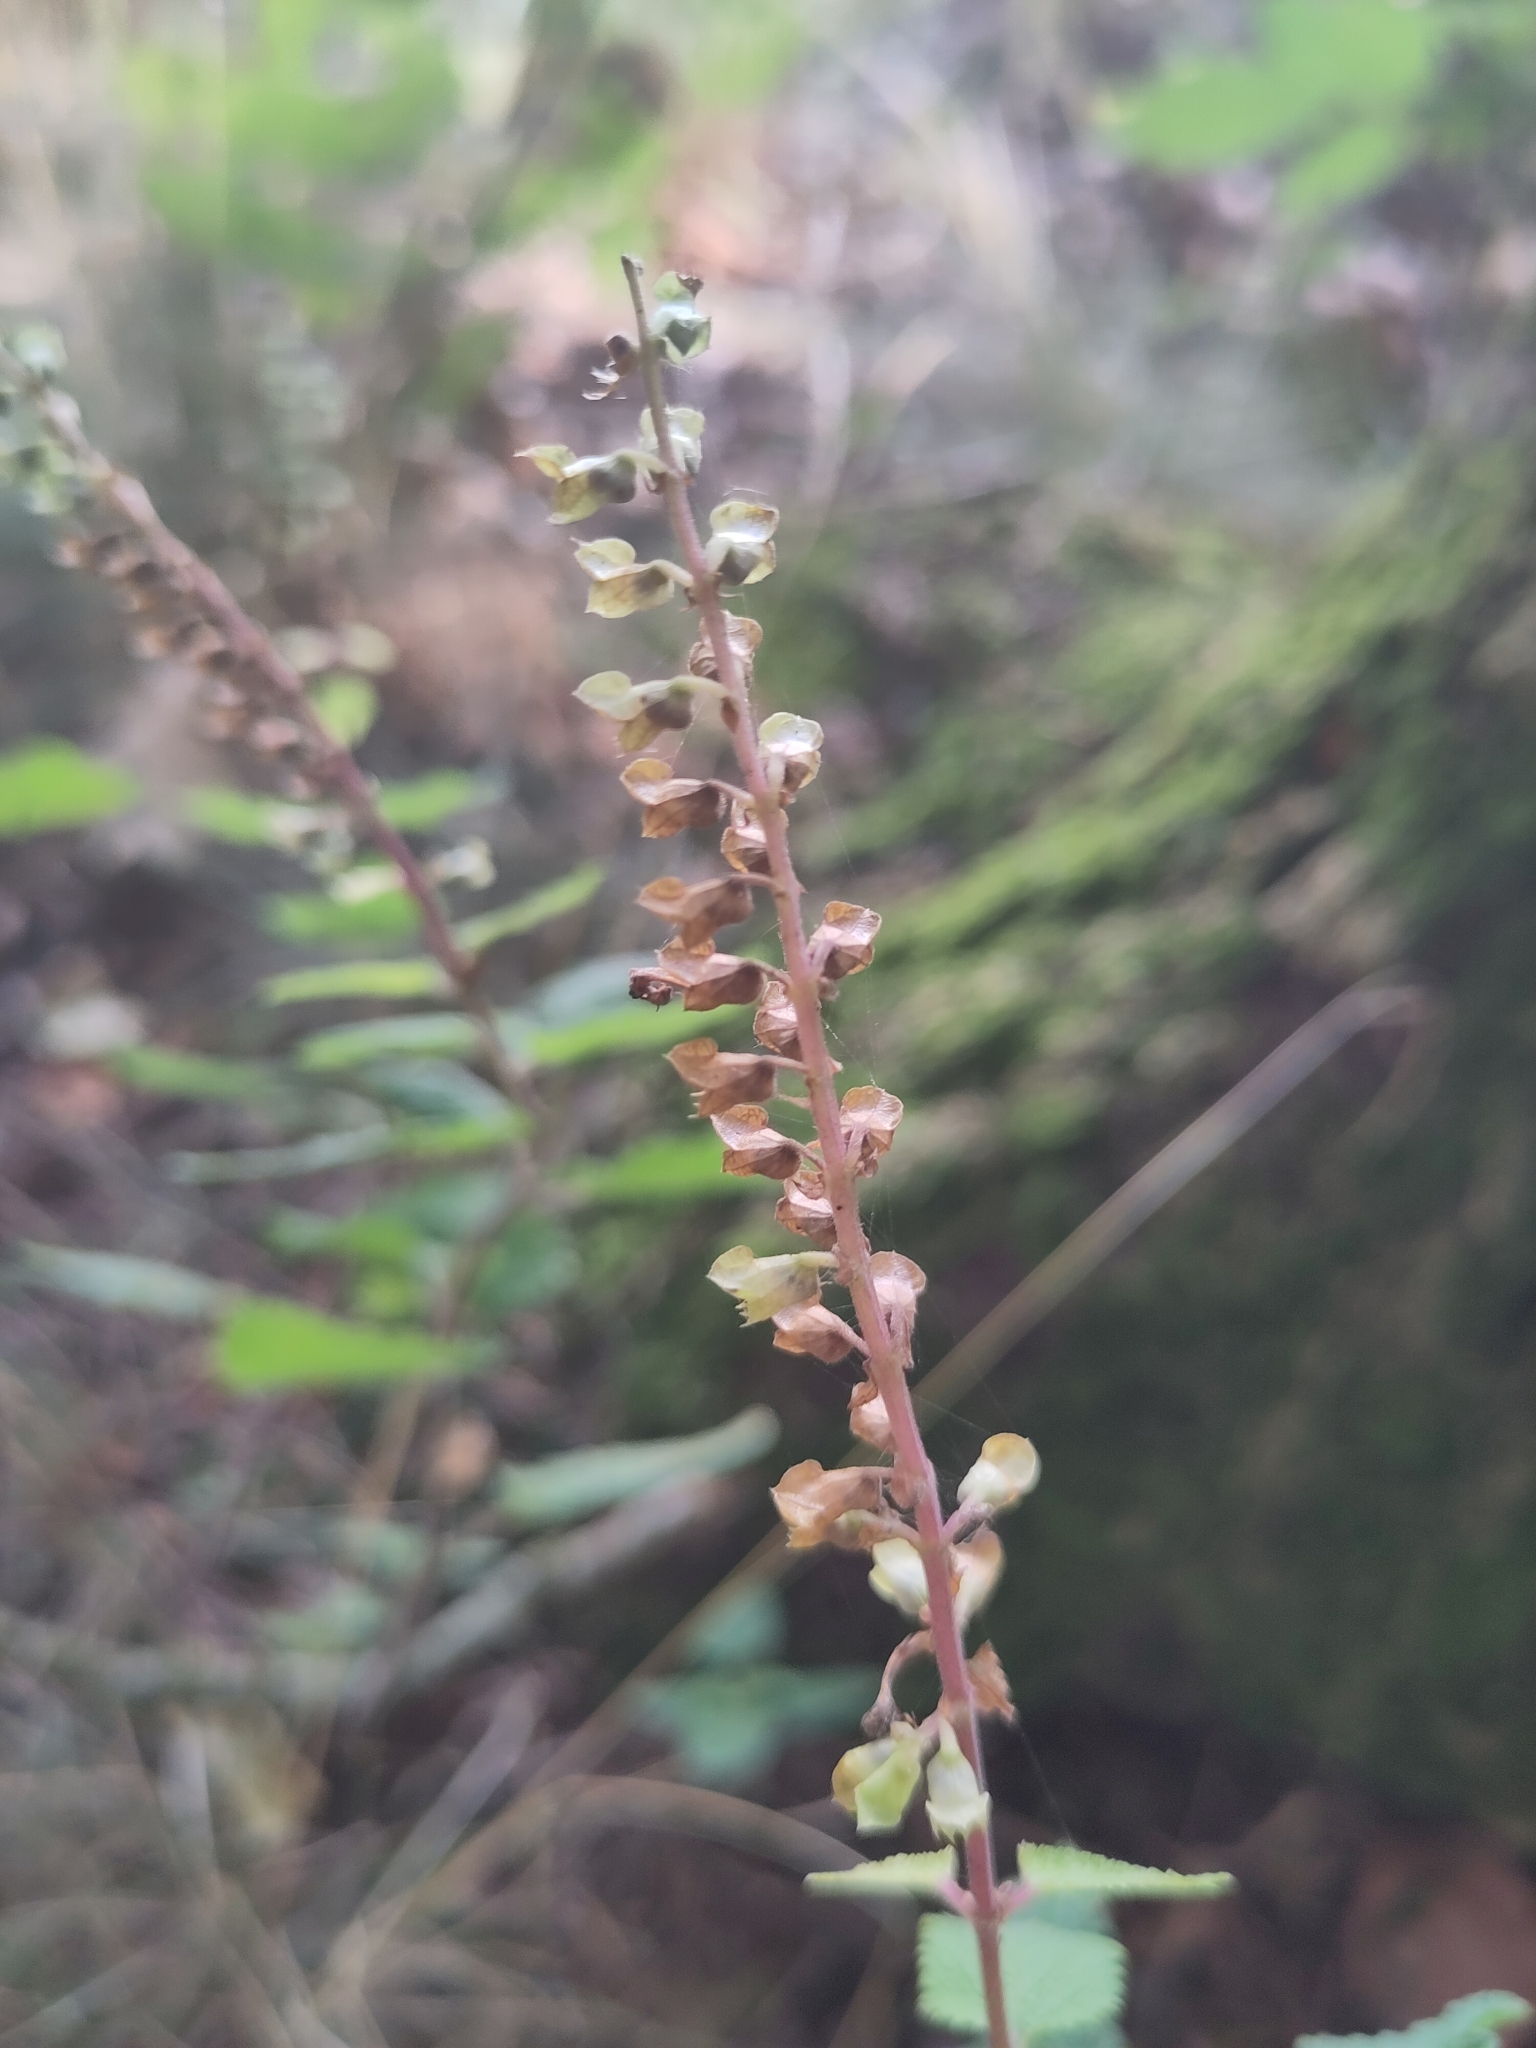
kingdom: Plantae
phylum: Tracheophyta
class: Magnoliopsida
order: Lamiales
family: Lamiaceae
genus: Teucrium
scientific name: Teucrium scorodonia
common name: Woodland germander
